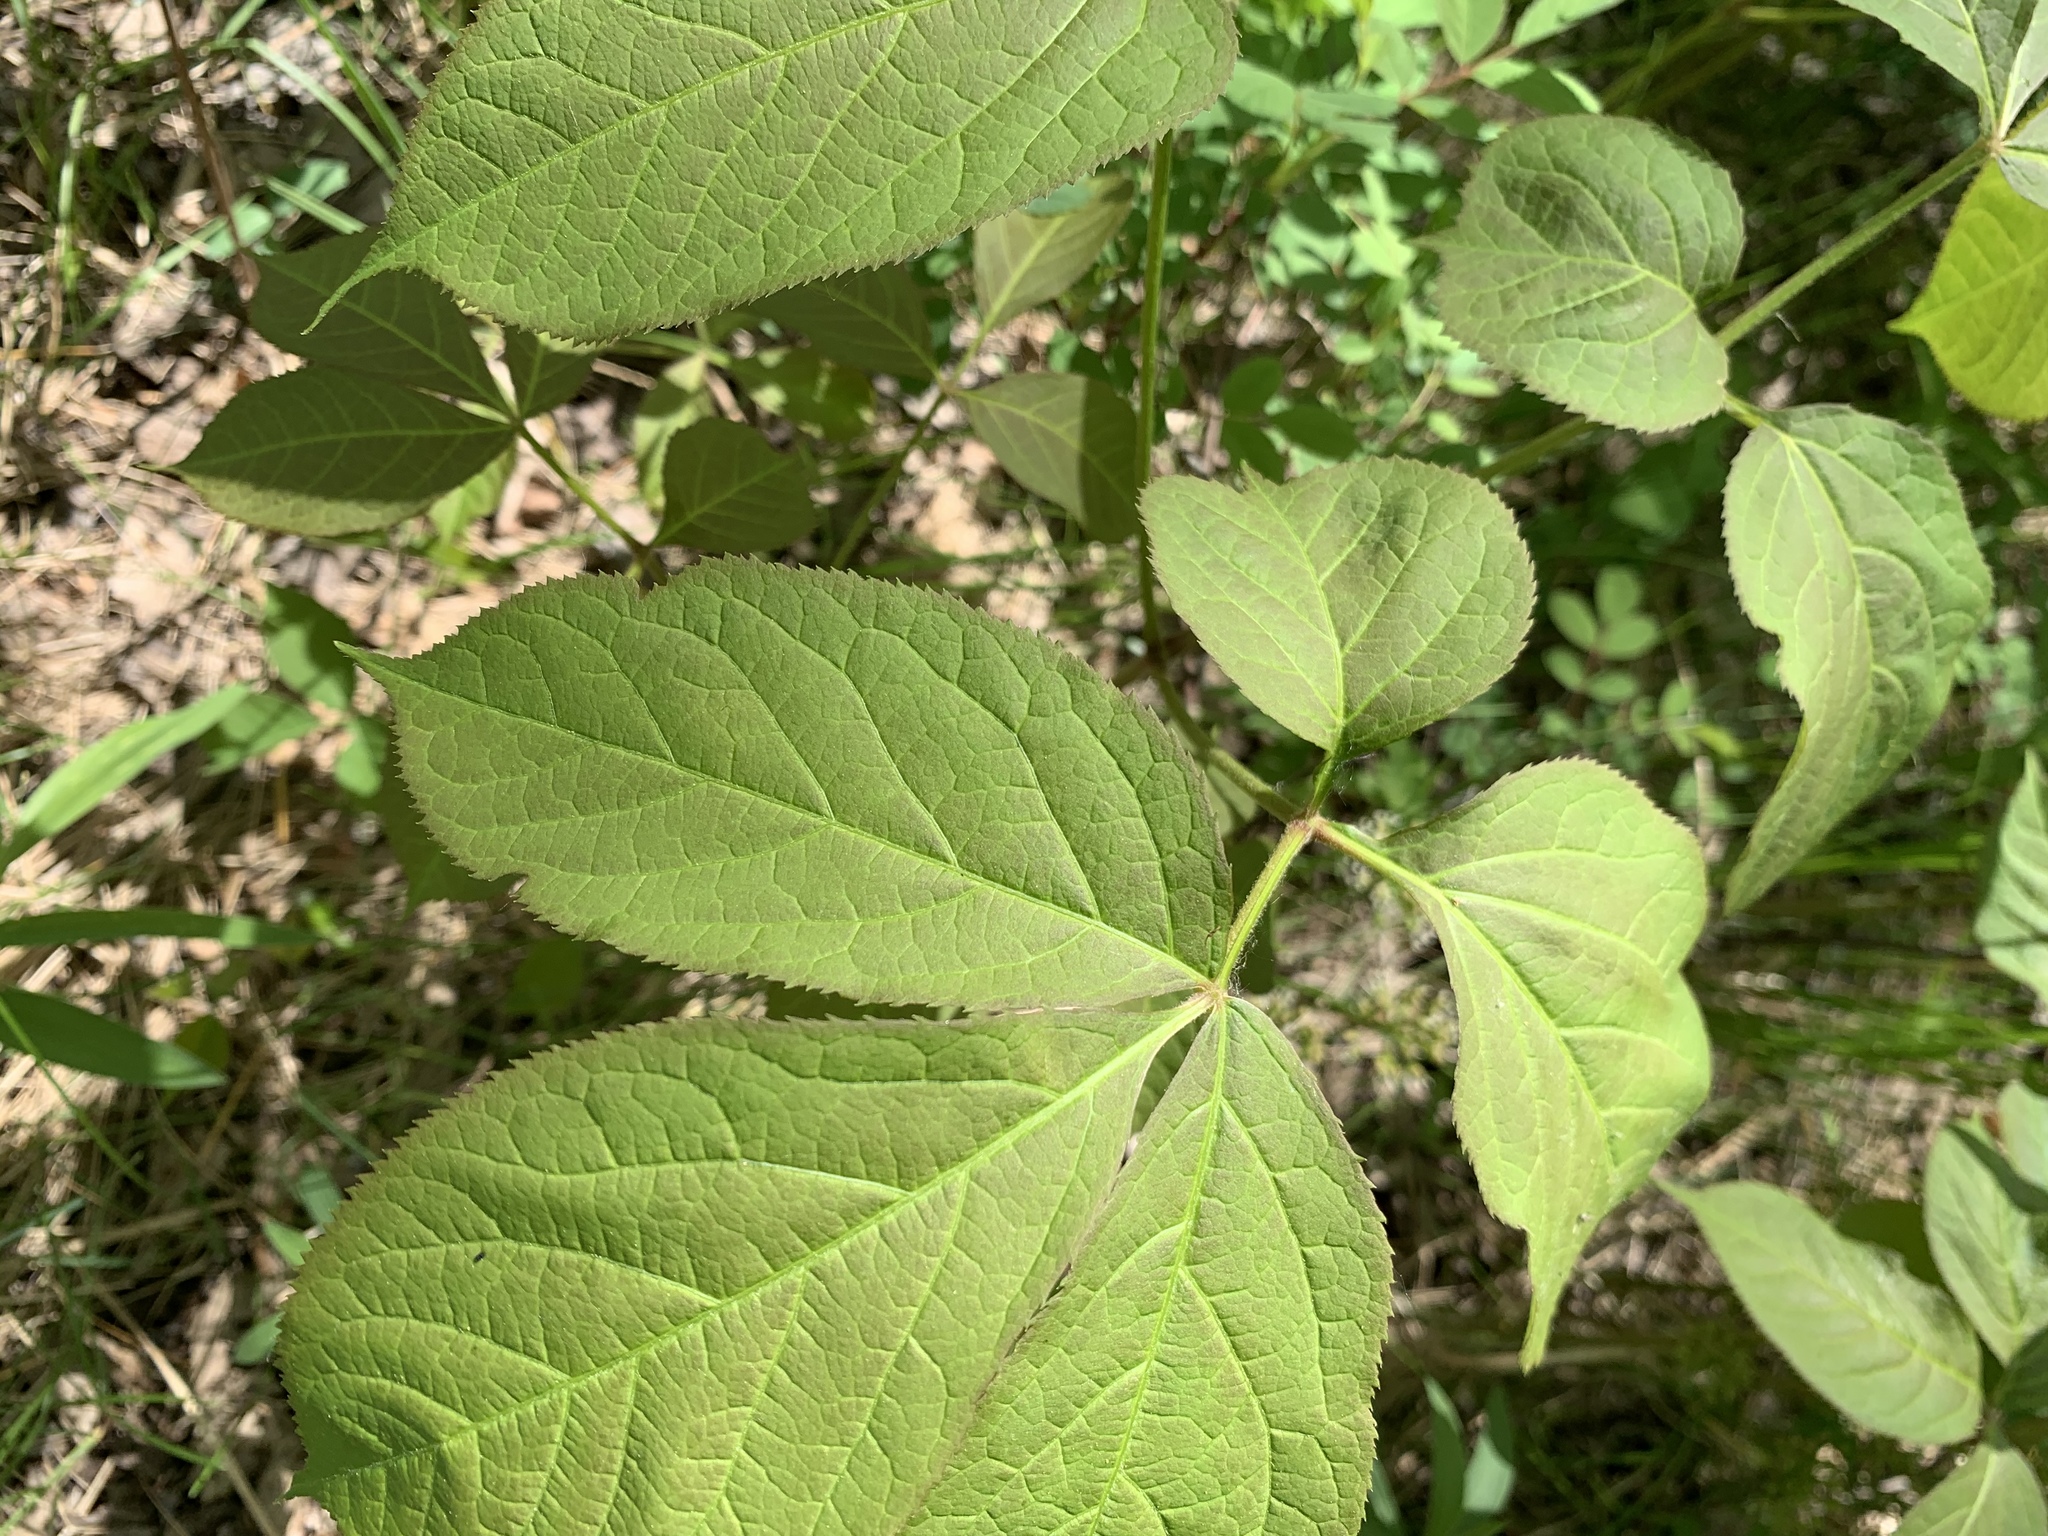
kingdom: Plantae
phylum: Tracheophyta
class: Magnoliopsida
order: Apiales
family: Araliaceae
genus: Aralia
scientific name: Aralia nudicaulis
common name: Wild sarsaparilla
